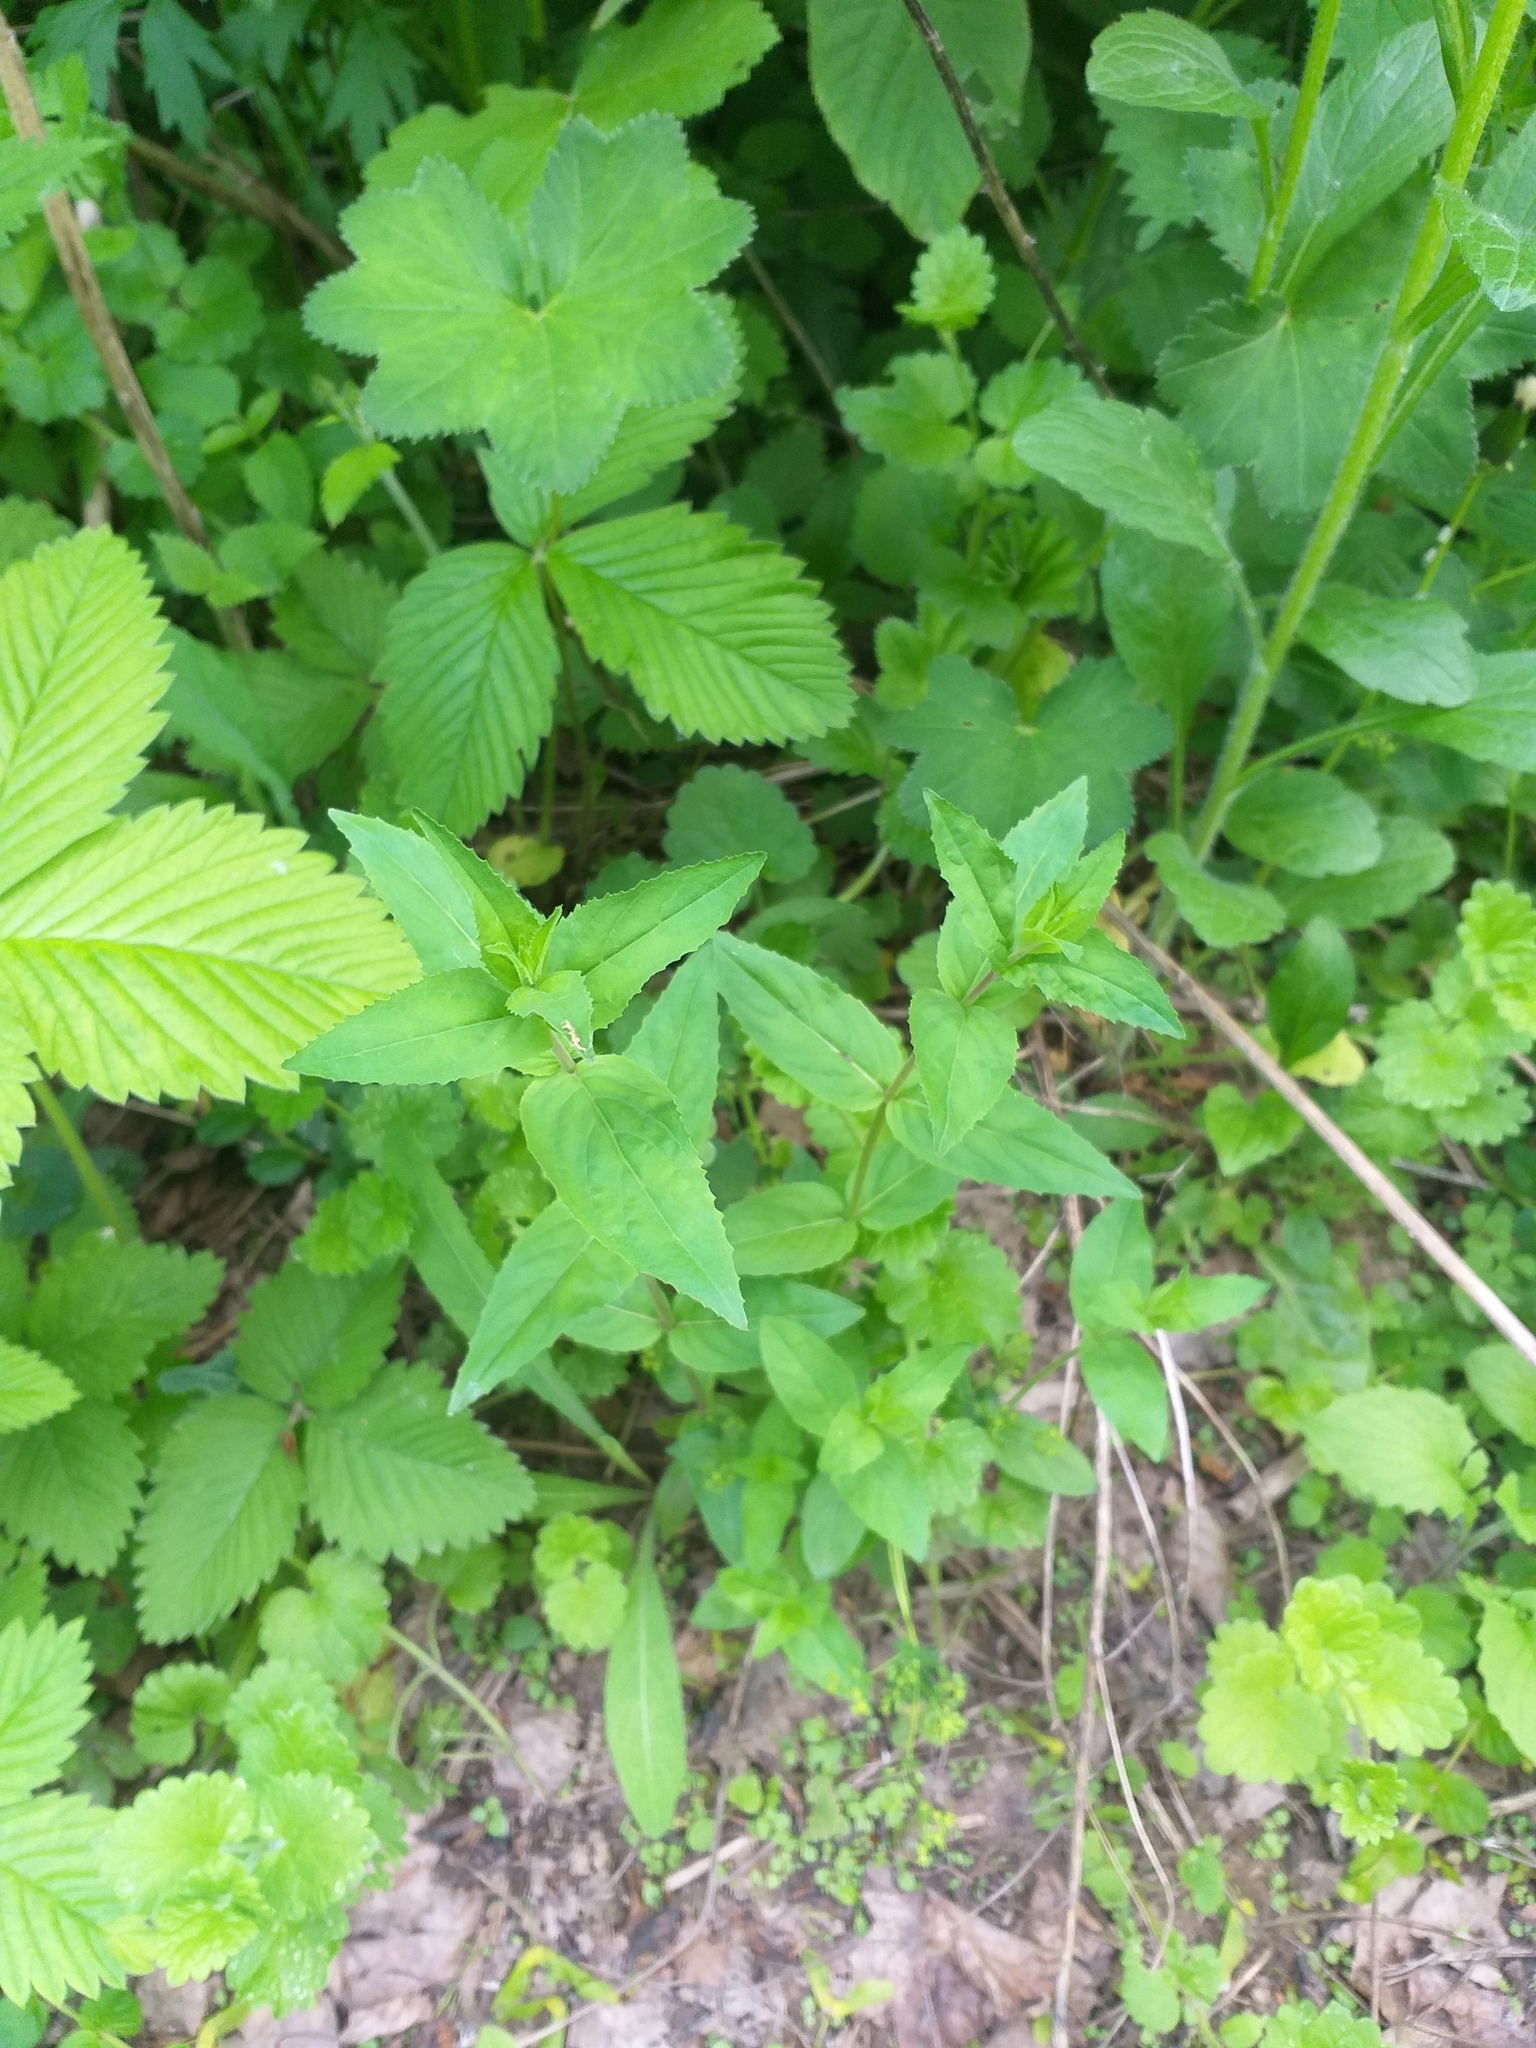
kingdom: Plantae
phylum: Tracheophyta
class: Magnoliopsida
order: Myrtales
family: Onagraceae
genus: Epilobium
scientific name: Epilobium montanum
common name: Broad-leaved willowherb
